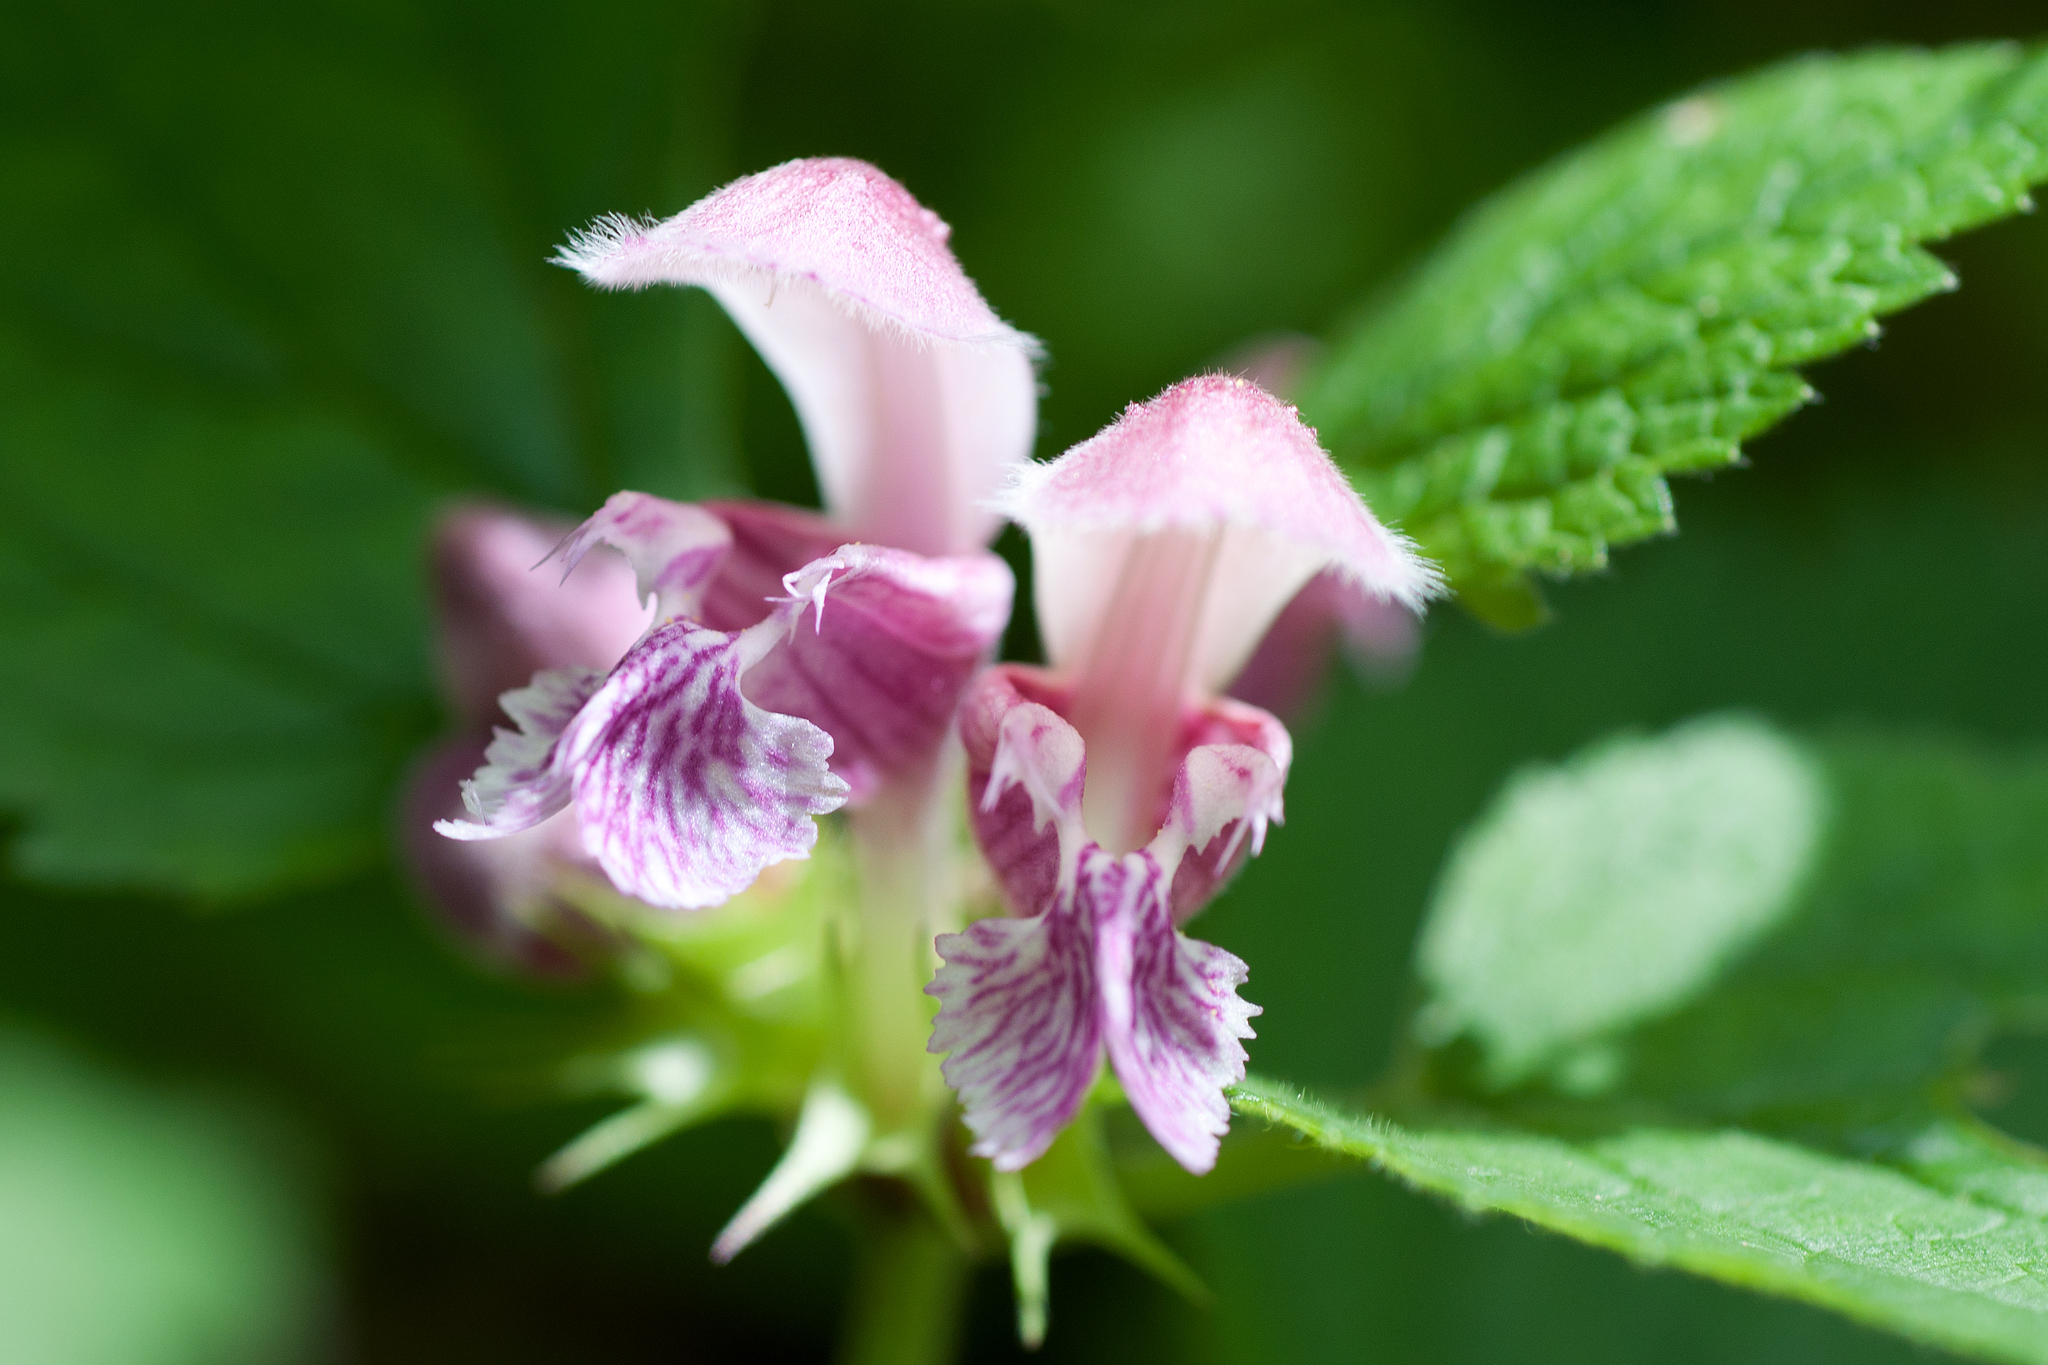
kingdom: Plantae
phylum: Tracheophyta
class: Magnoliopsida
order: Lamiales
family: Lamiaceae
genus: Lamium
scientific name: Lamium orvala
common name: Balm-leaved archangel
